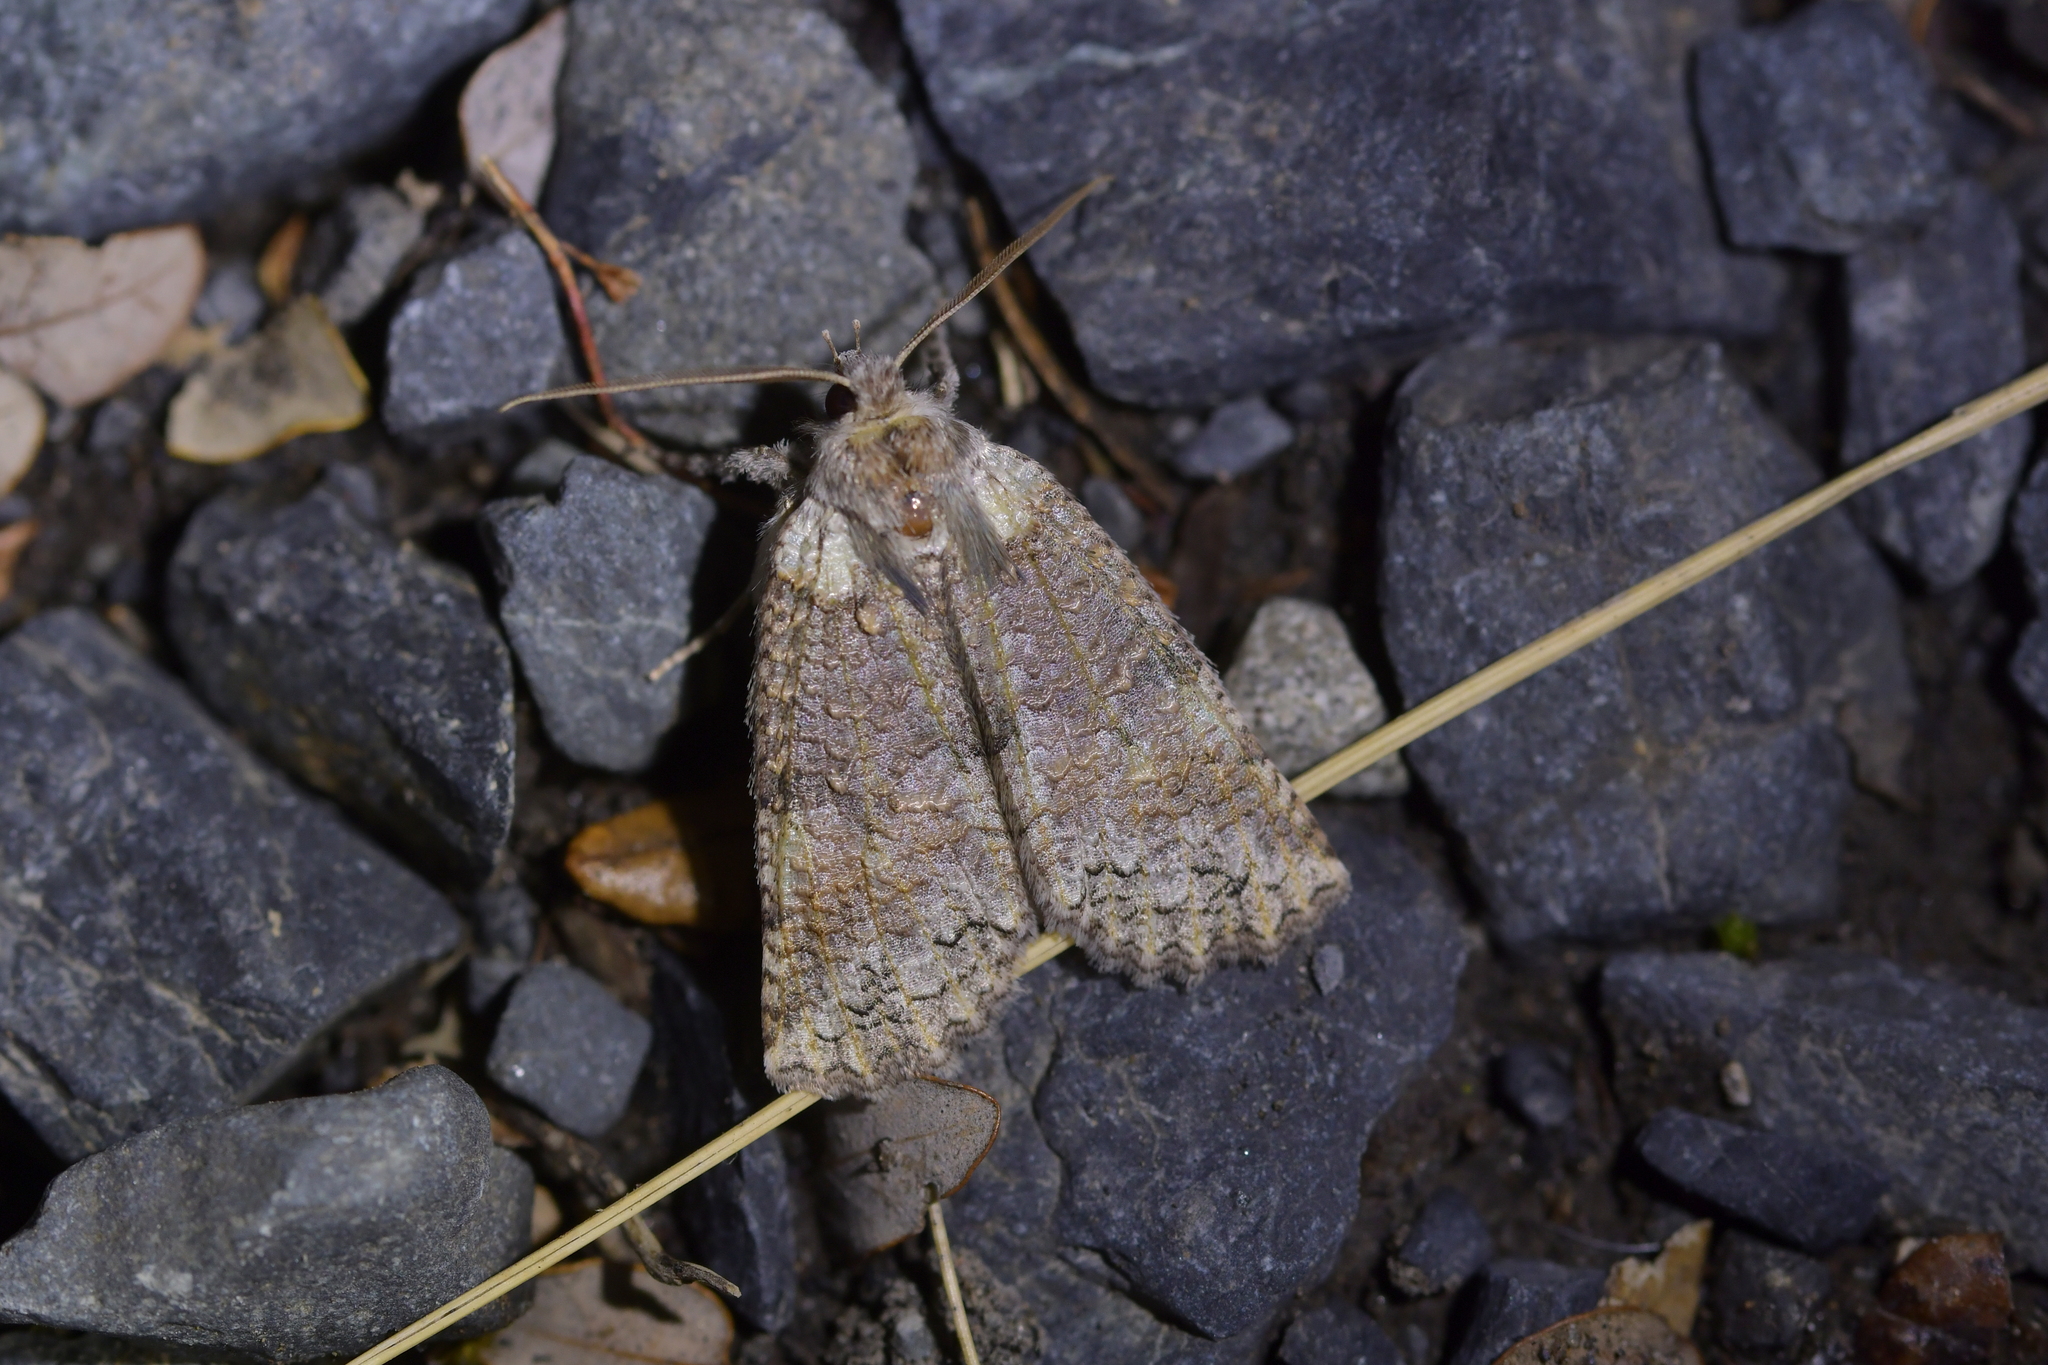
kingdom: Animalia
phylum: Arthropoda
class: Insecta
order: Lepidoptera
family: Geometridae
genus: Declana
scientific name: Declana floccosa
